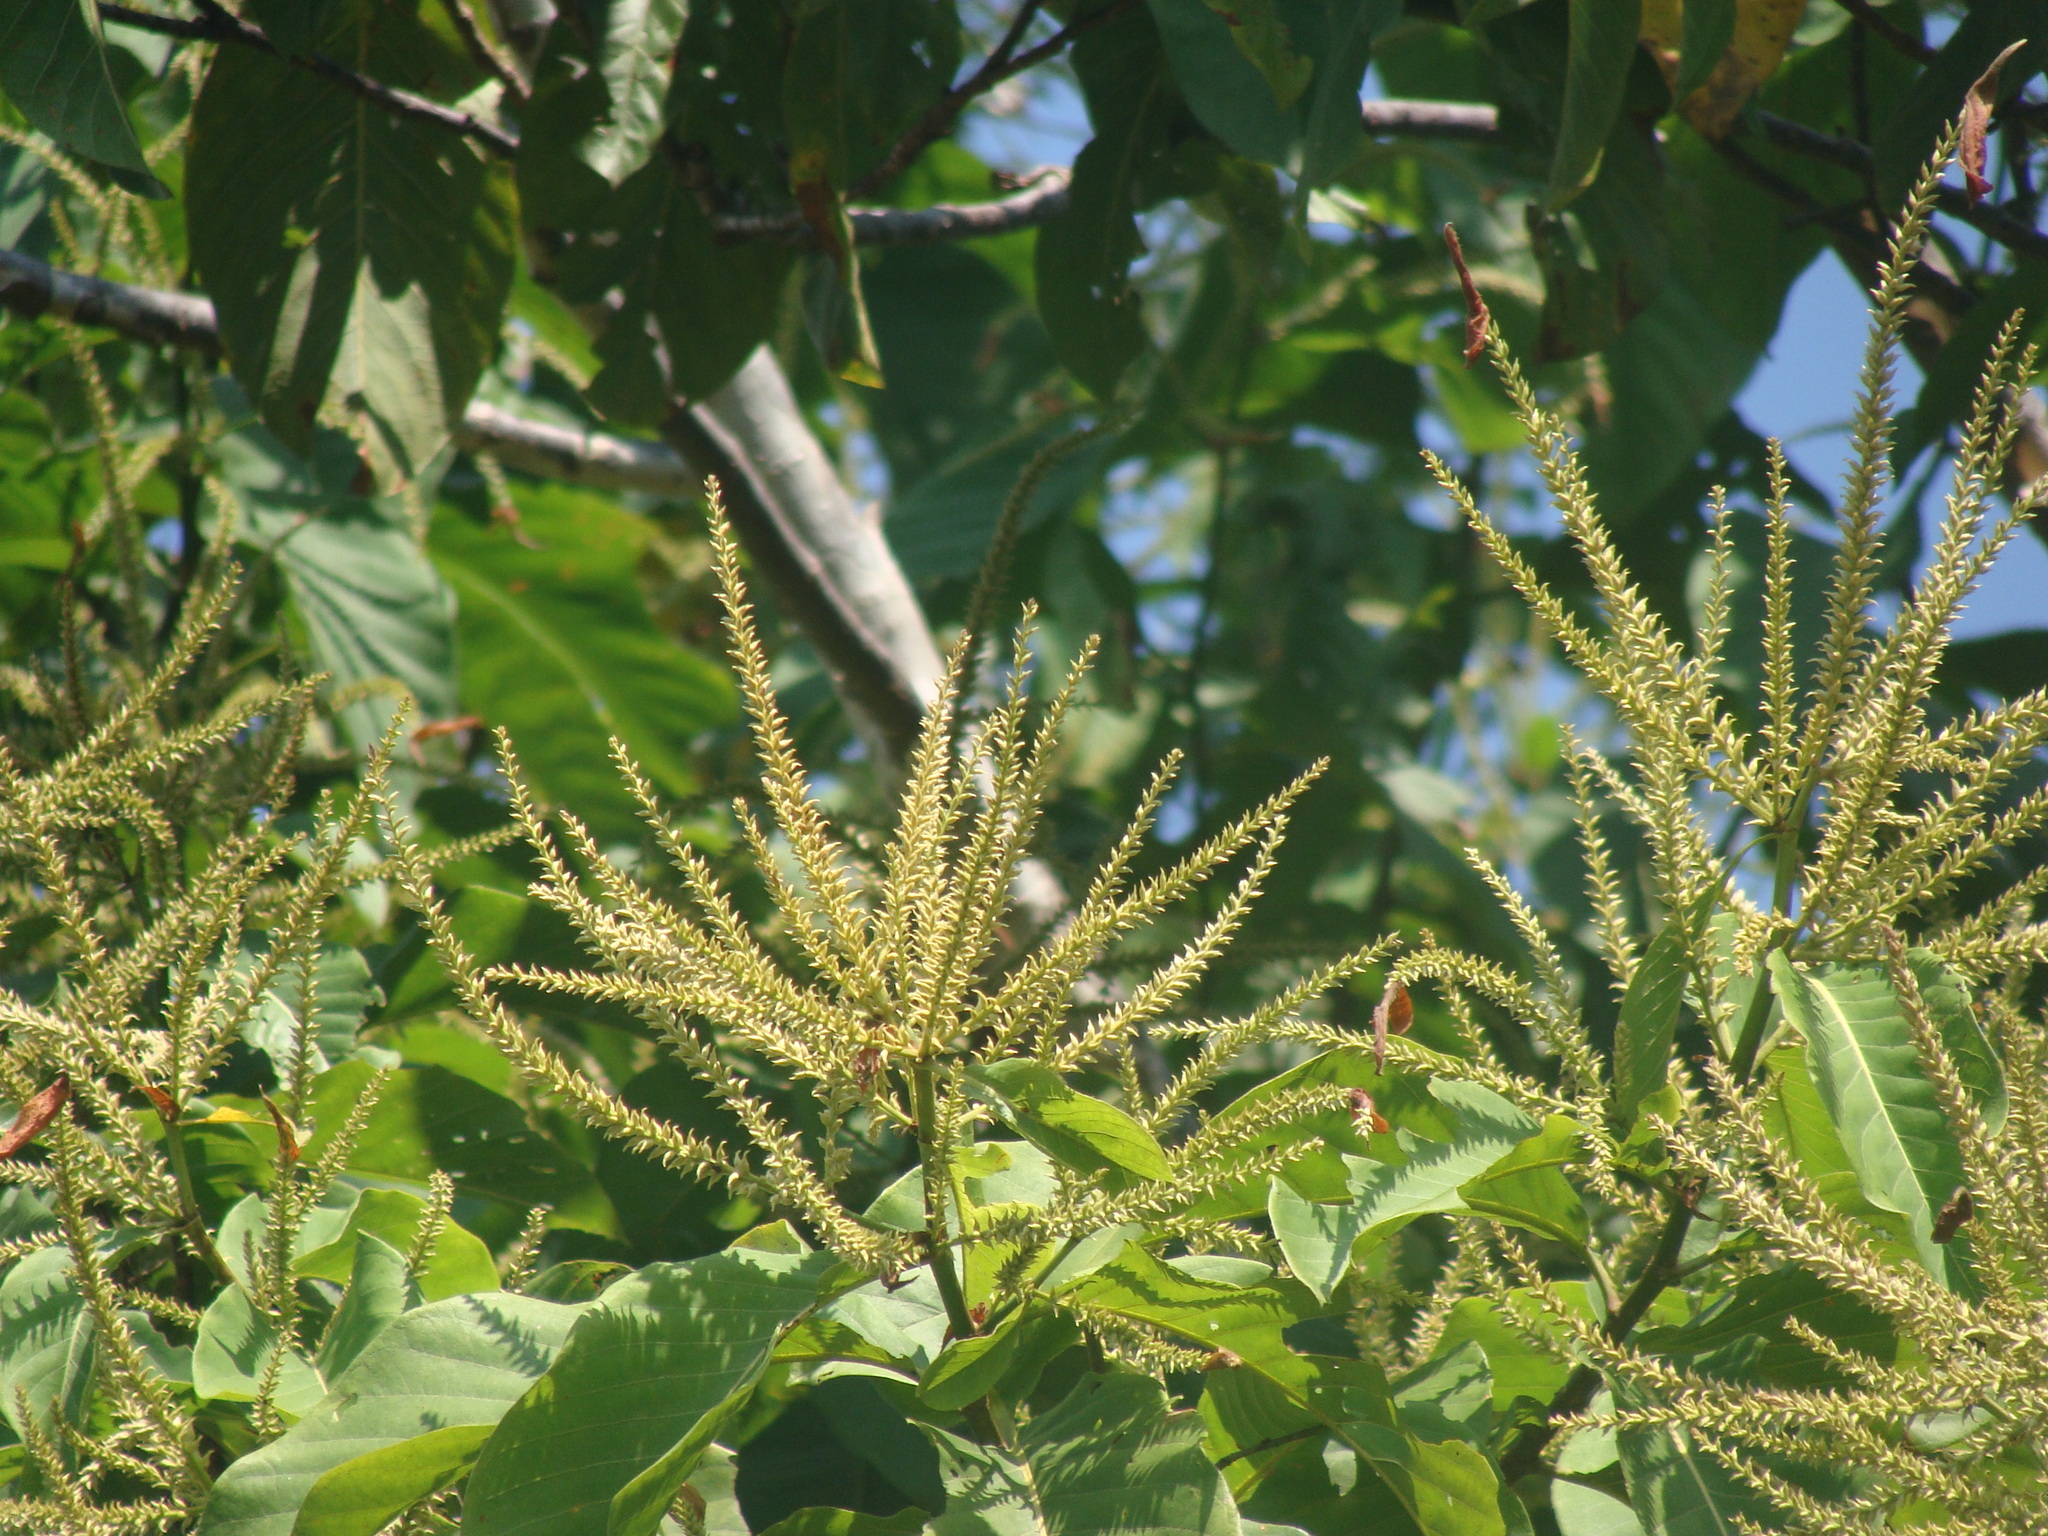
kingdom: Plantae
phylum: Tracheophyta
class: Magnoliopsida
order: Caryophyllales
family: Polygonaceae
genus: Triplaris
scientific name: Triplaris melaenodendron
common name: Long john
